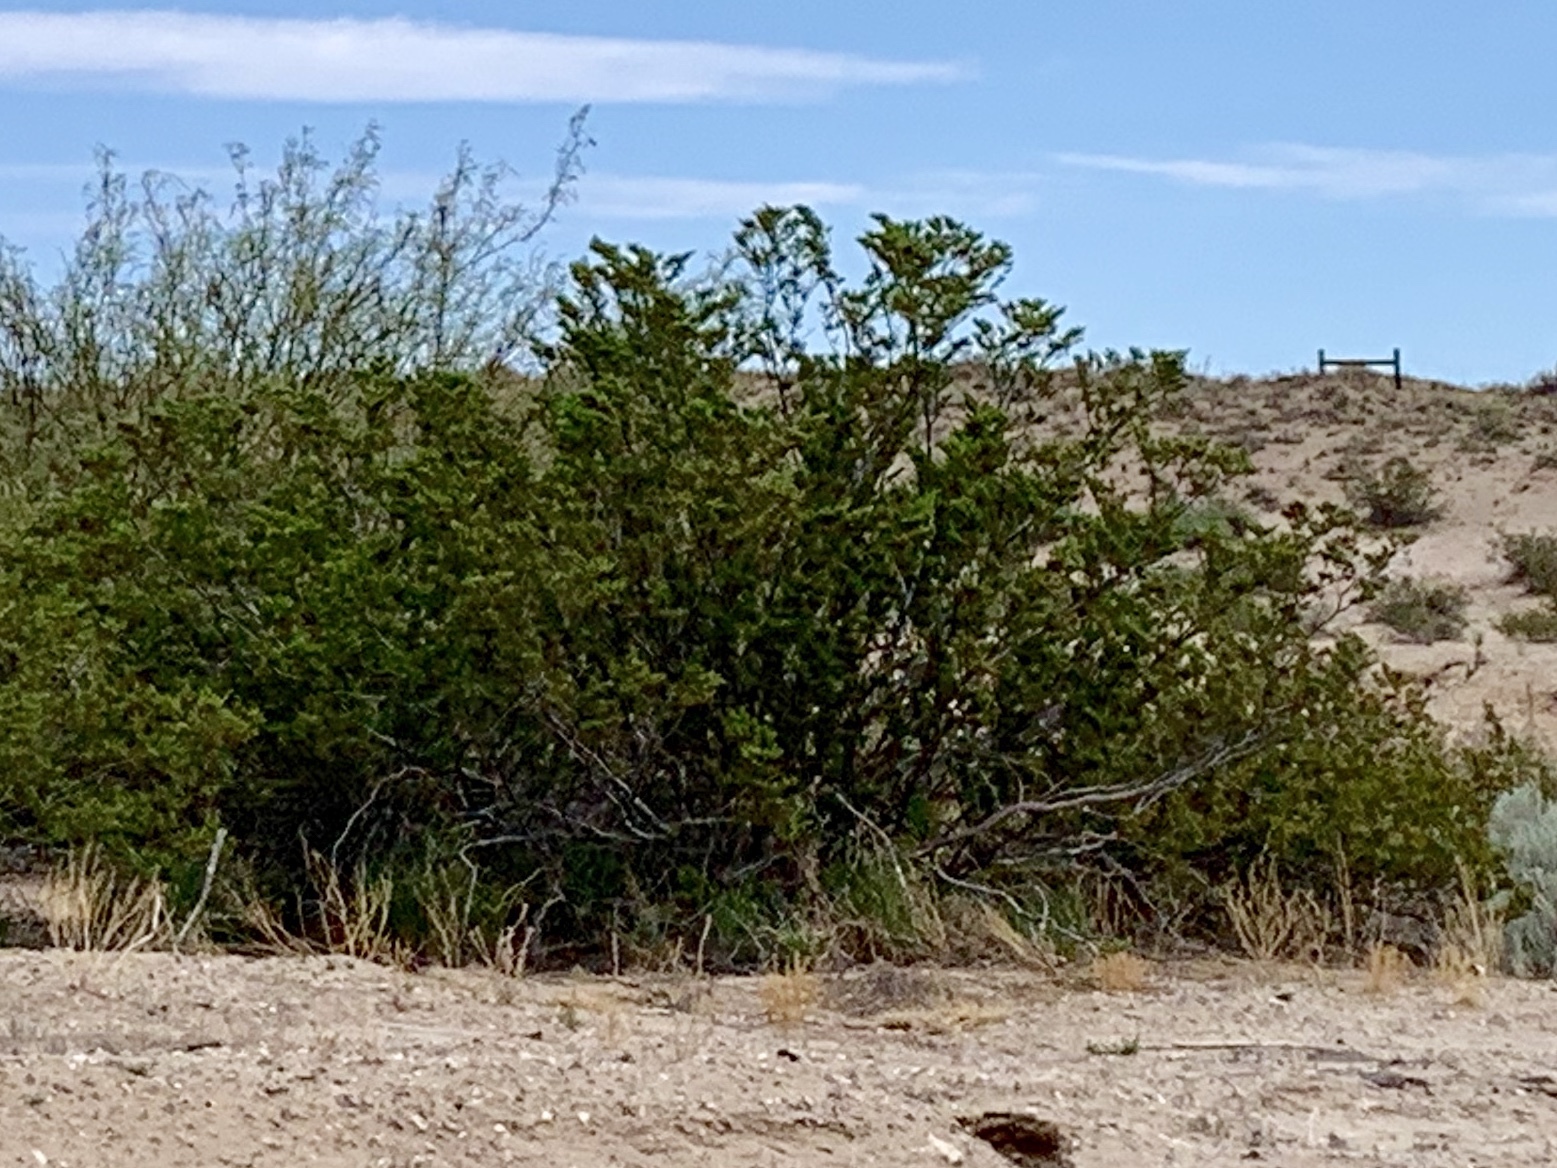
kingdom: Plantae
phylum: Tracheophyta
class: Magnoliopsida
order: Zygophyllales
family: Zygophyllaceae
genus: Larrea
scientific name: Larrea tridentata
